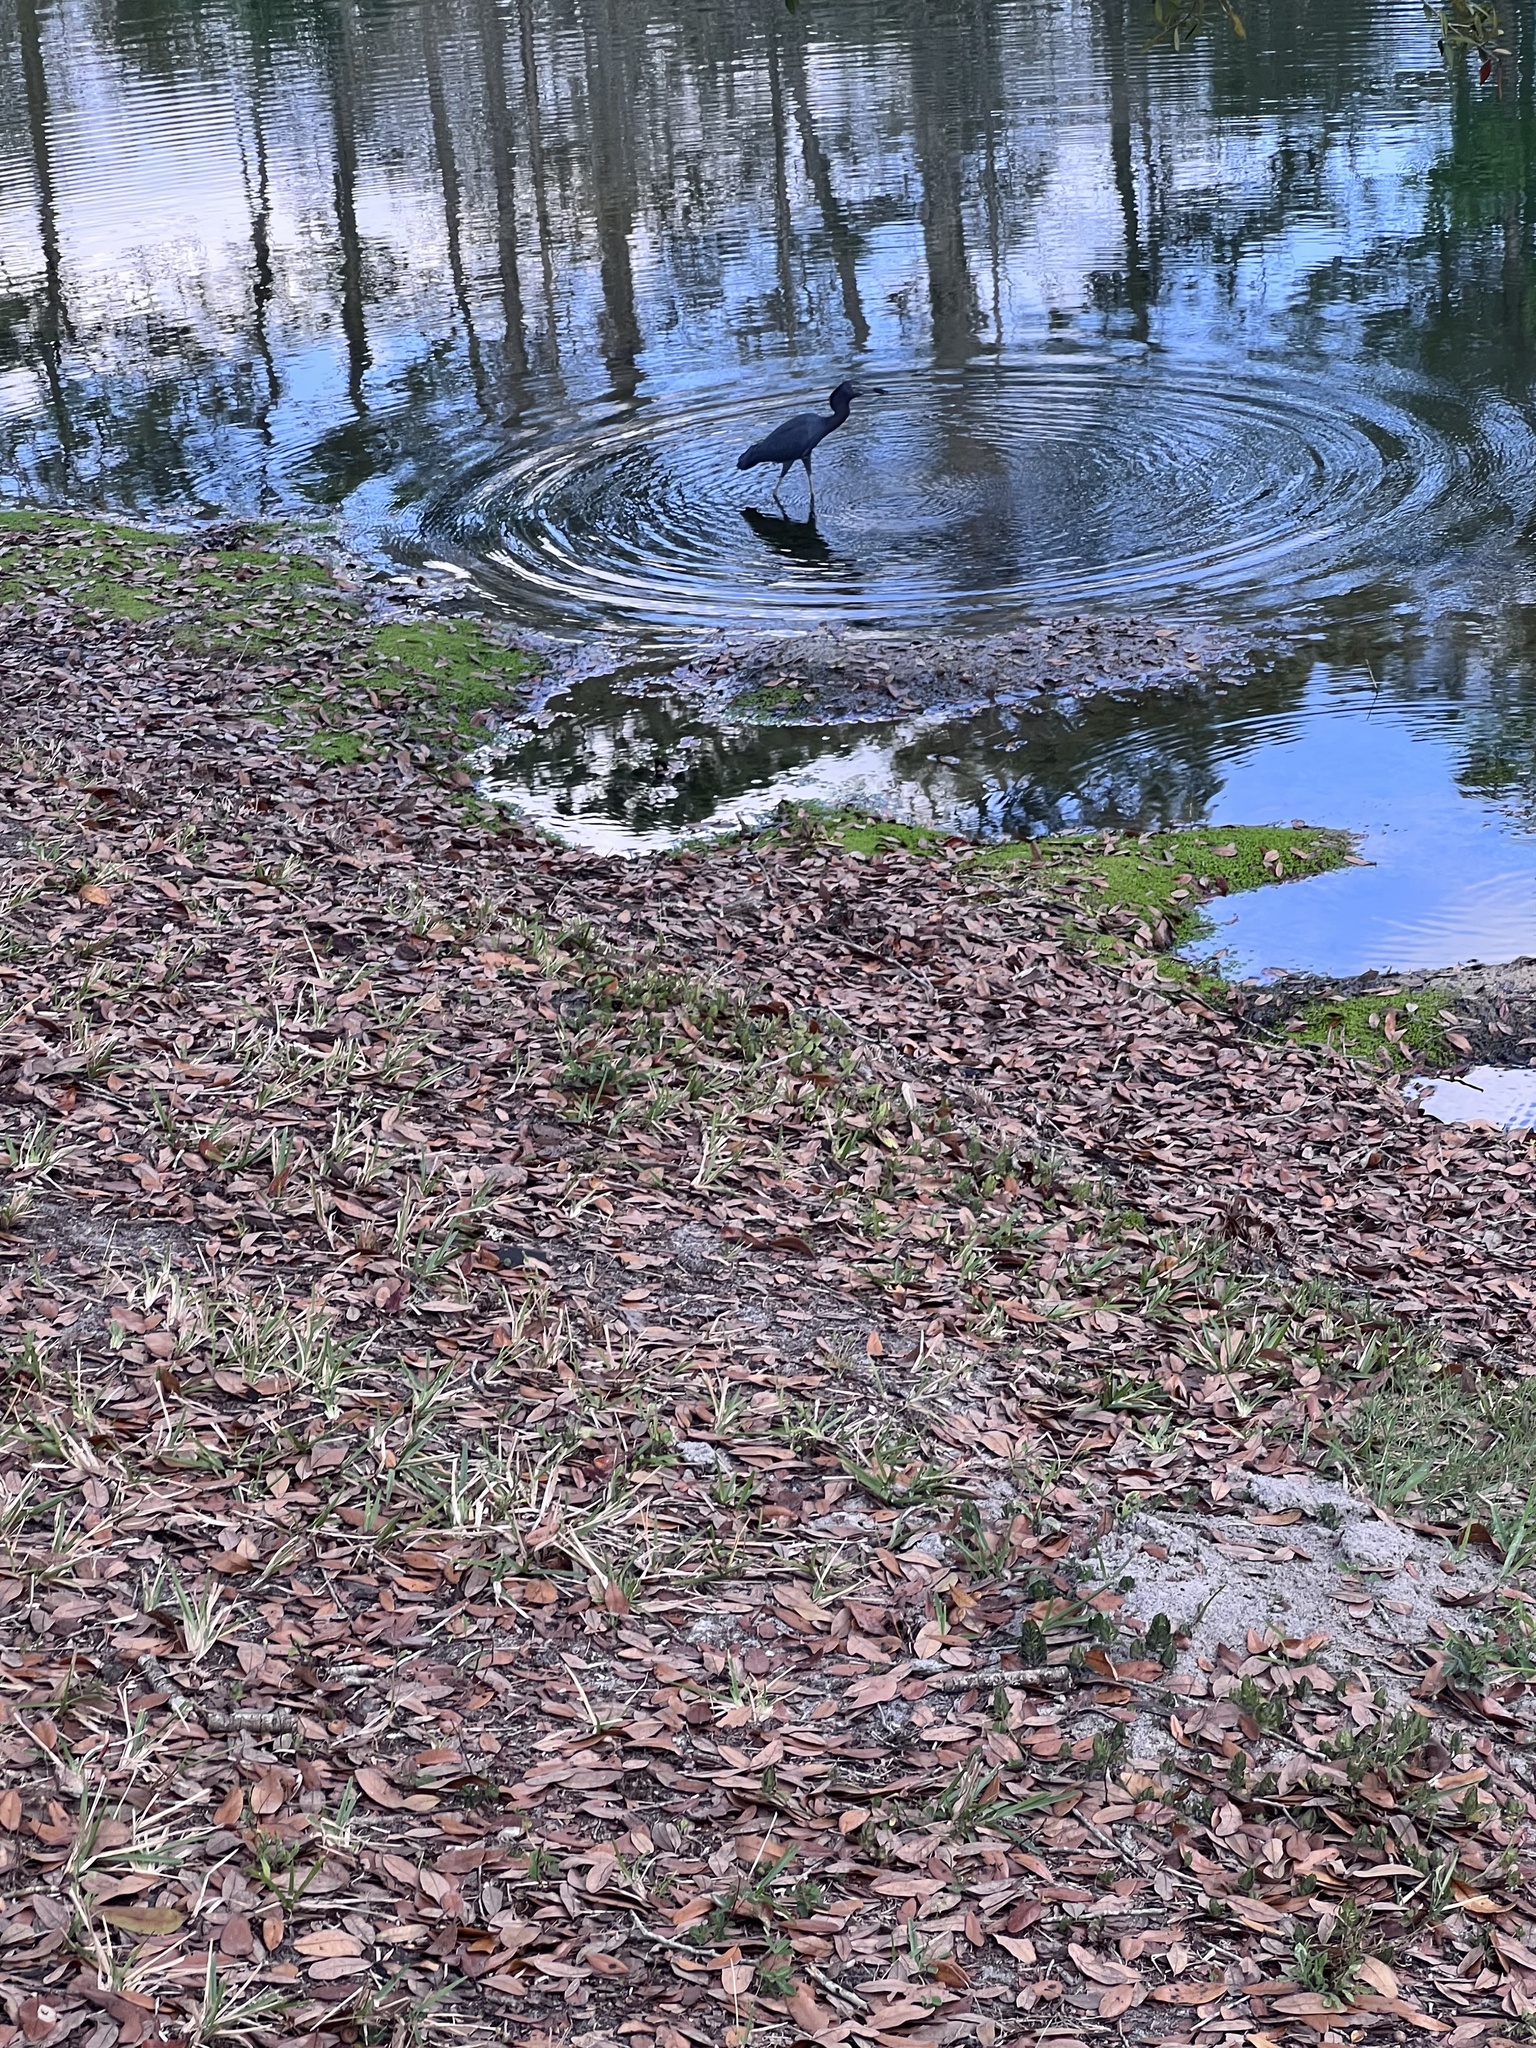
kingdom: Animalia
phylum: Chordata
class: Aves
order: Pelecaniformes
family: Ardeidae
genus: Egretta
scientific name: Egretta caerulea
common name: Little blue heron
